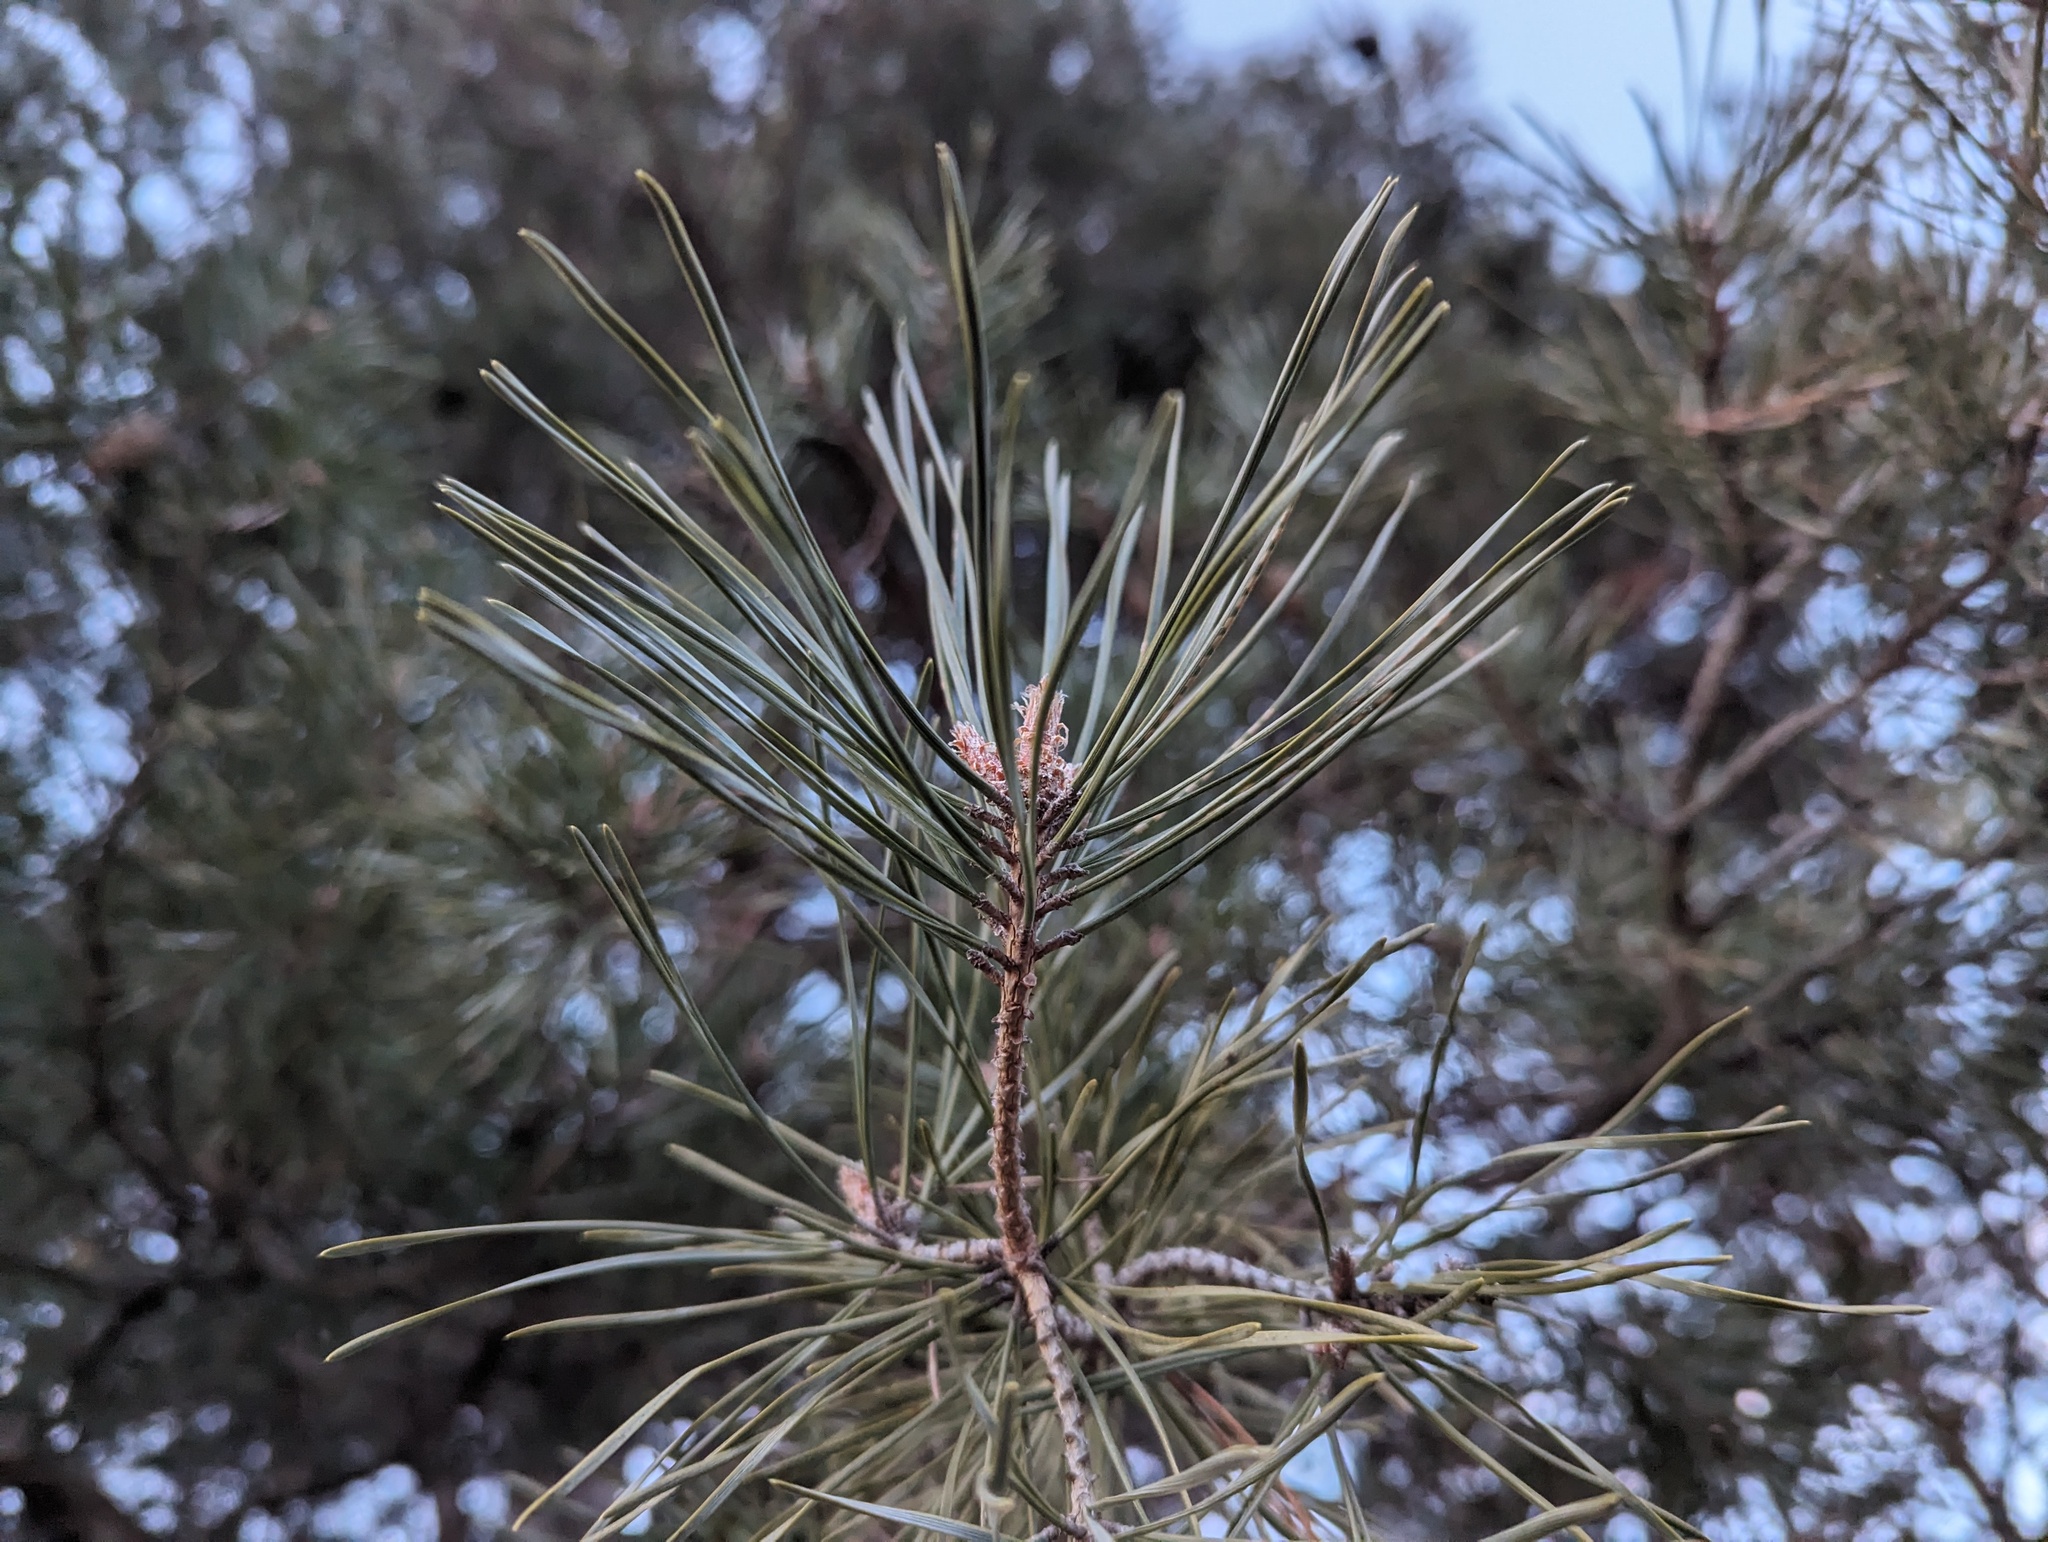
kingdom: Plantae
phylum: Tracheophyta
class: Pinopsida
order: Pinales
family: Pinaceae
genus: Pinus
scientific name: Pinus sylvestris
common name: Scots pine
